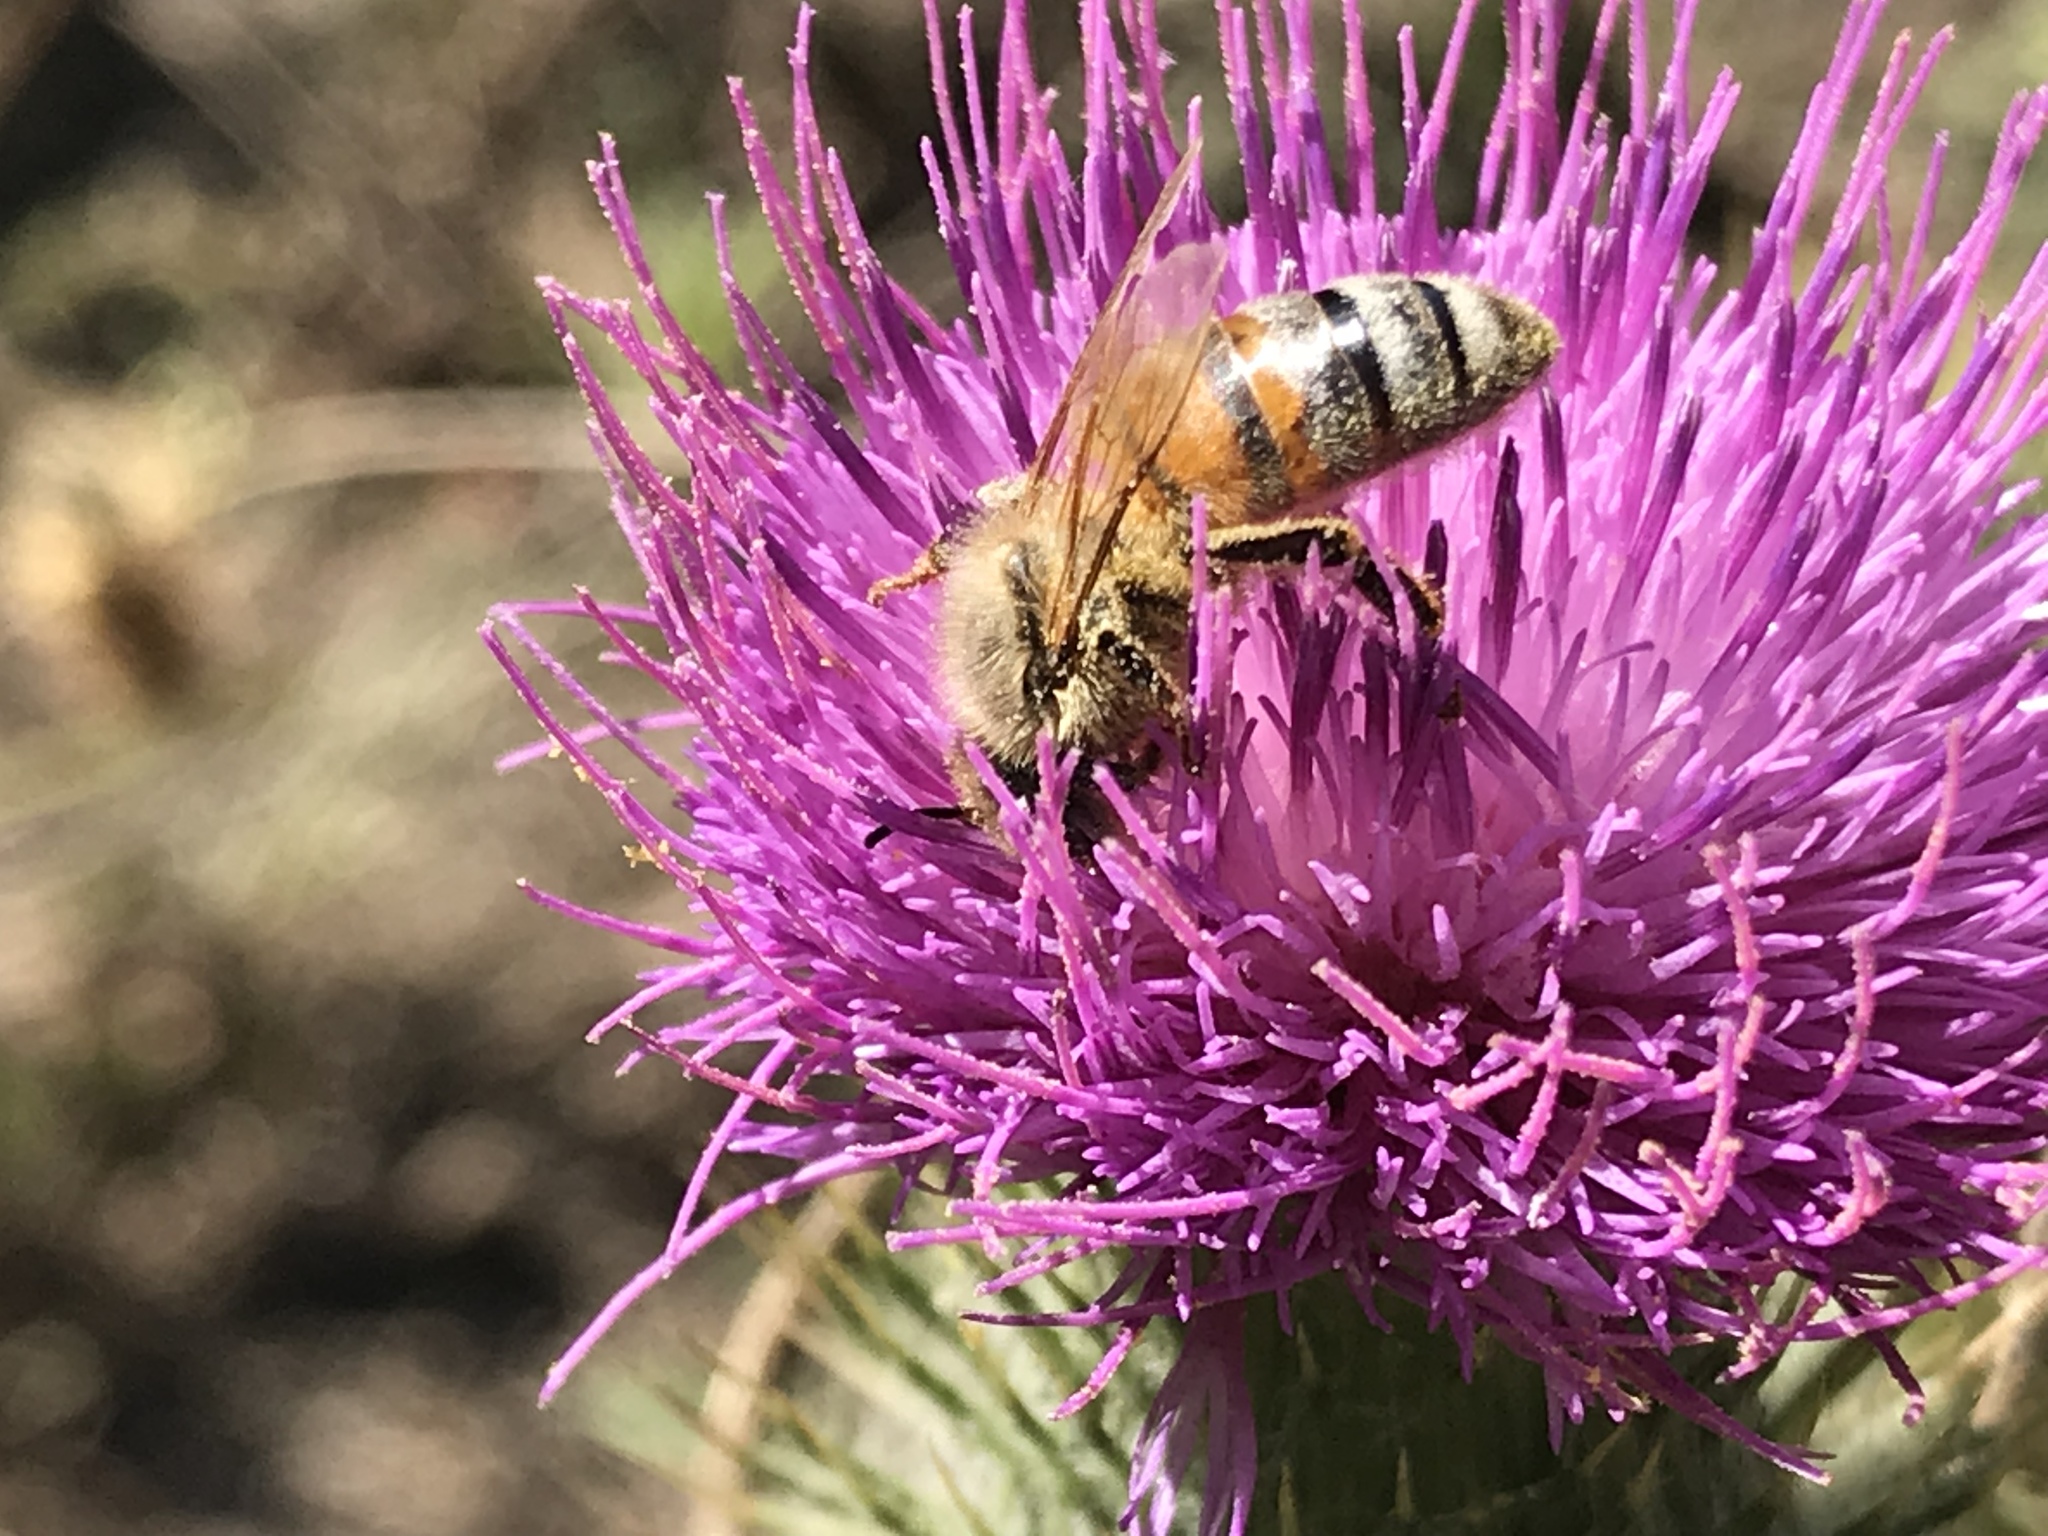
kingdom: Animalia
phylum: Arthropoda
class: Insecta
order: Hymenoptera
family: Apidae
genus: Apis
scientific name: Apis mellifera
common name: Honey bee
